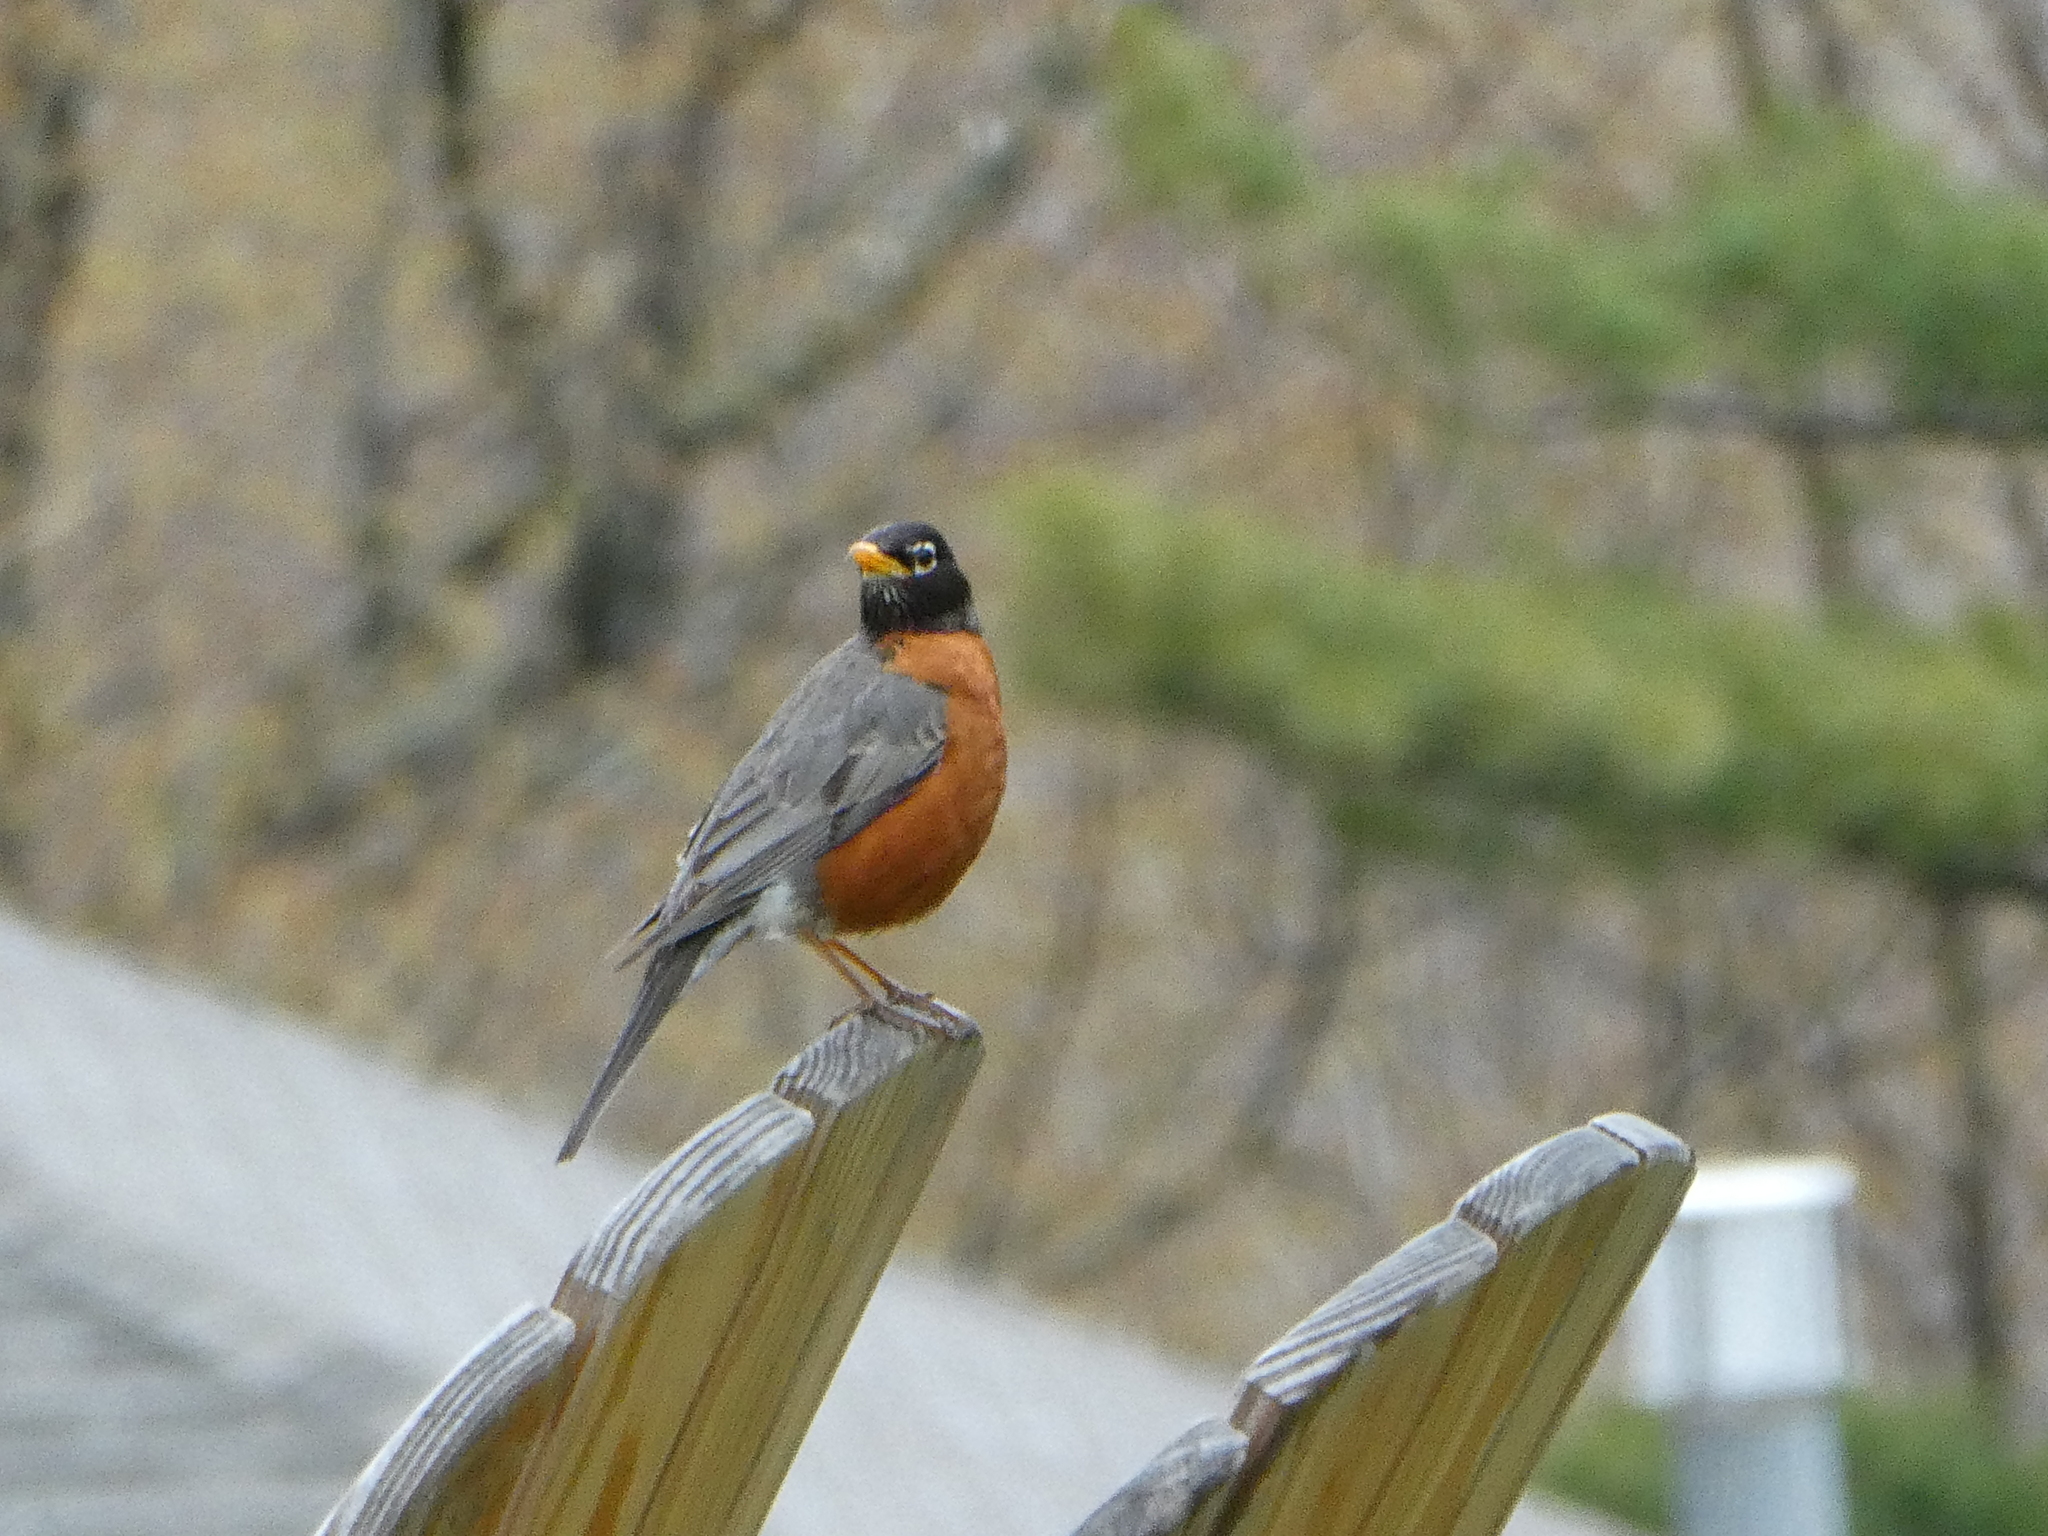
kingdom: Animalia
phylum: Chordata
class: Aves
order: Passeriformes
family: Turdidae
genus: Turdus
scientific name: Turdus migratorius
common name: American robin
